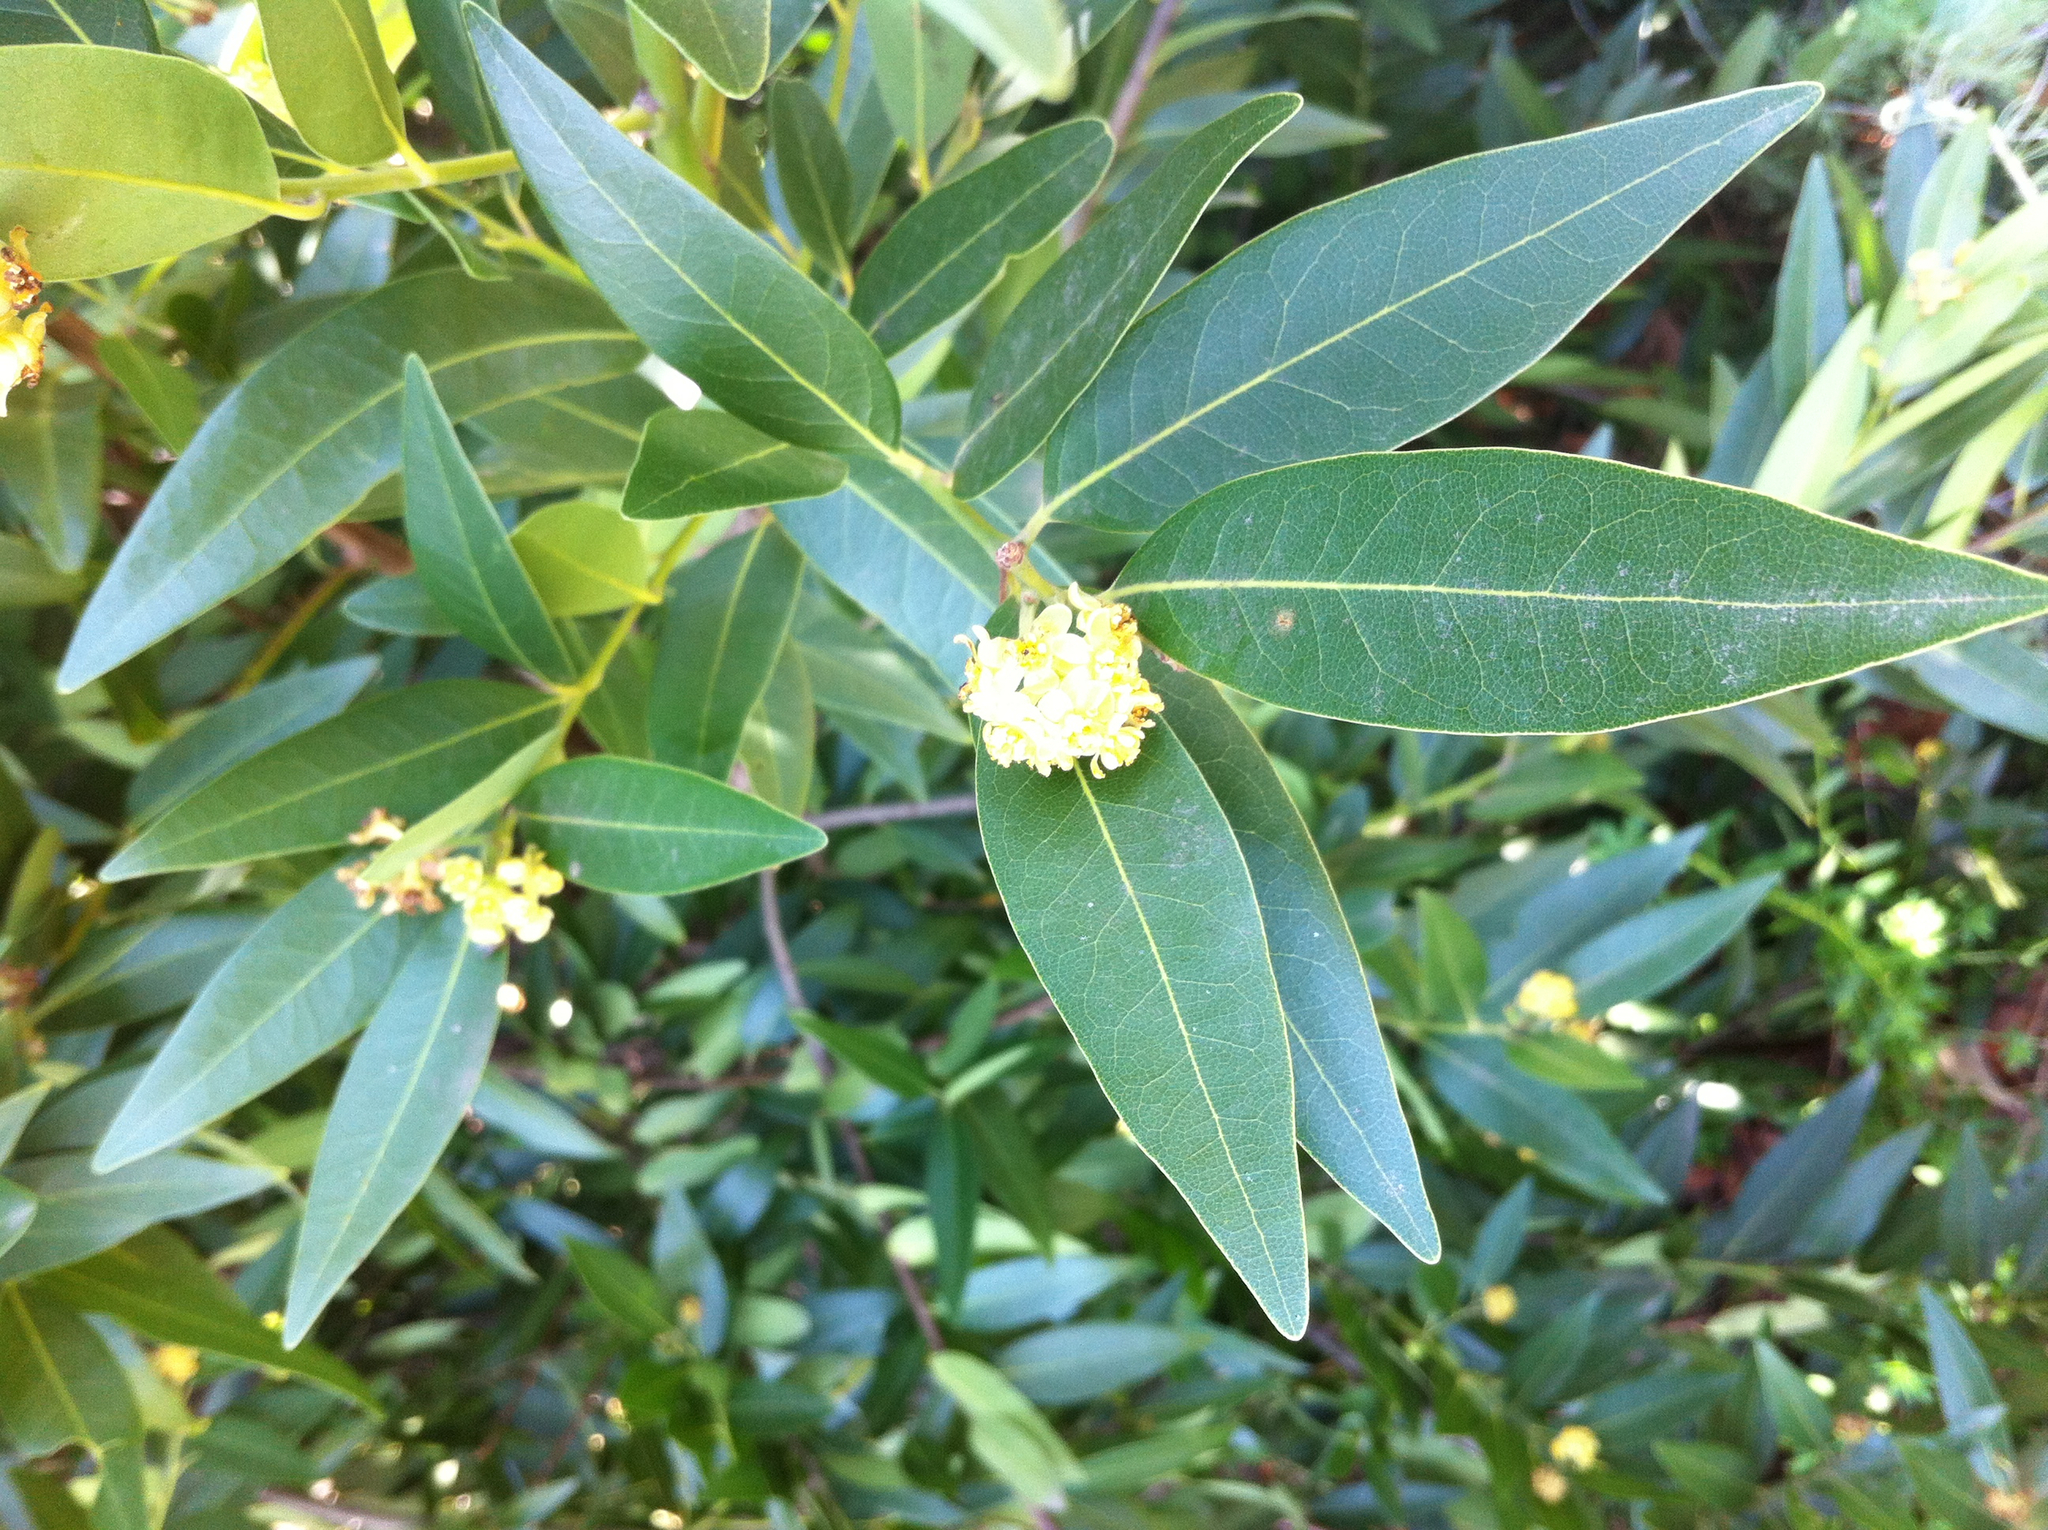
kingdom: Plantae
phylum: Tracheophyta
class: Magnoliopsida
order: Laurales
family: Lauraceae
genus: Umbellularia
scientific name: Umbellularia californica
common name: California bay
